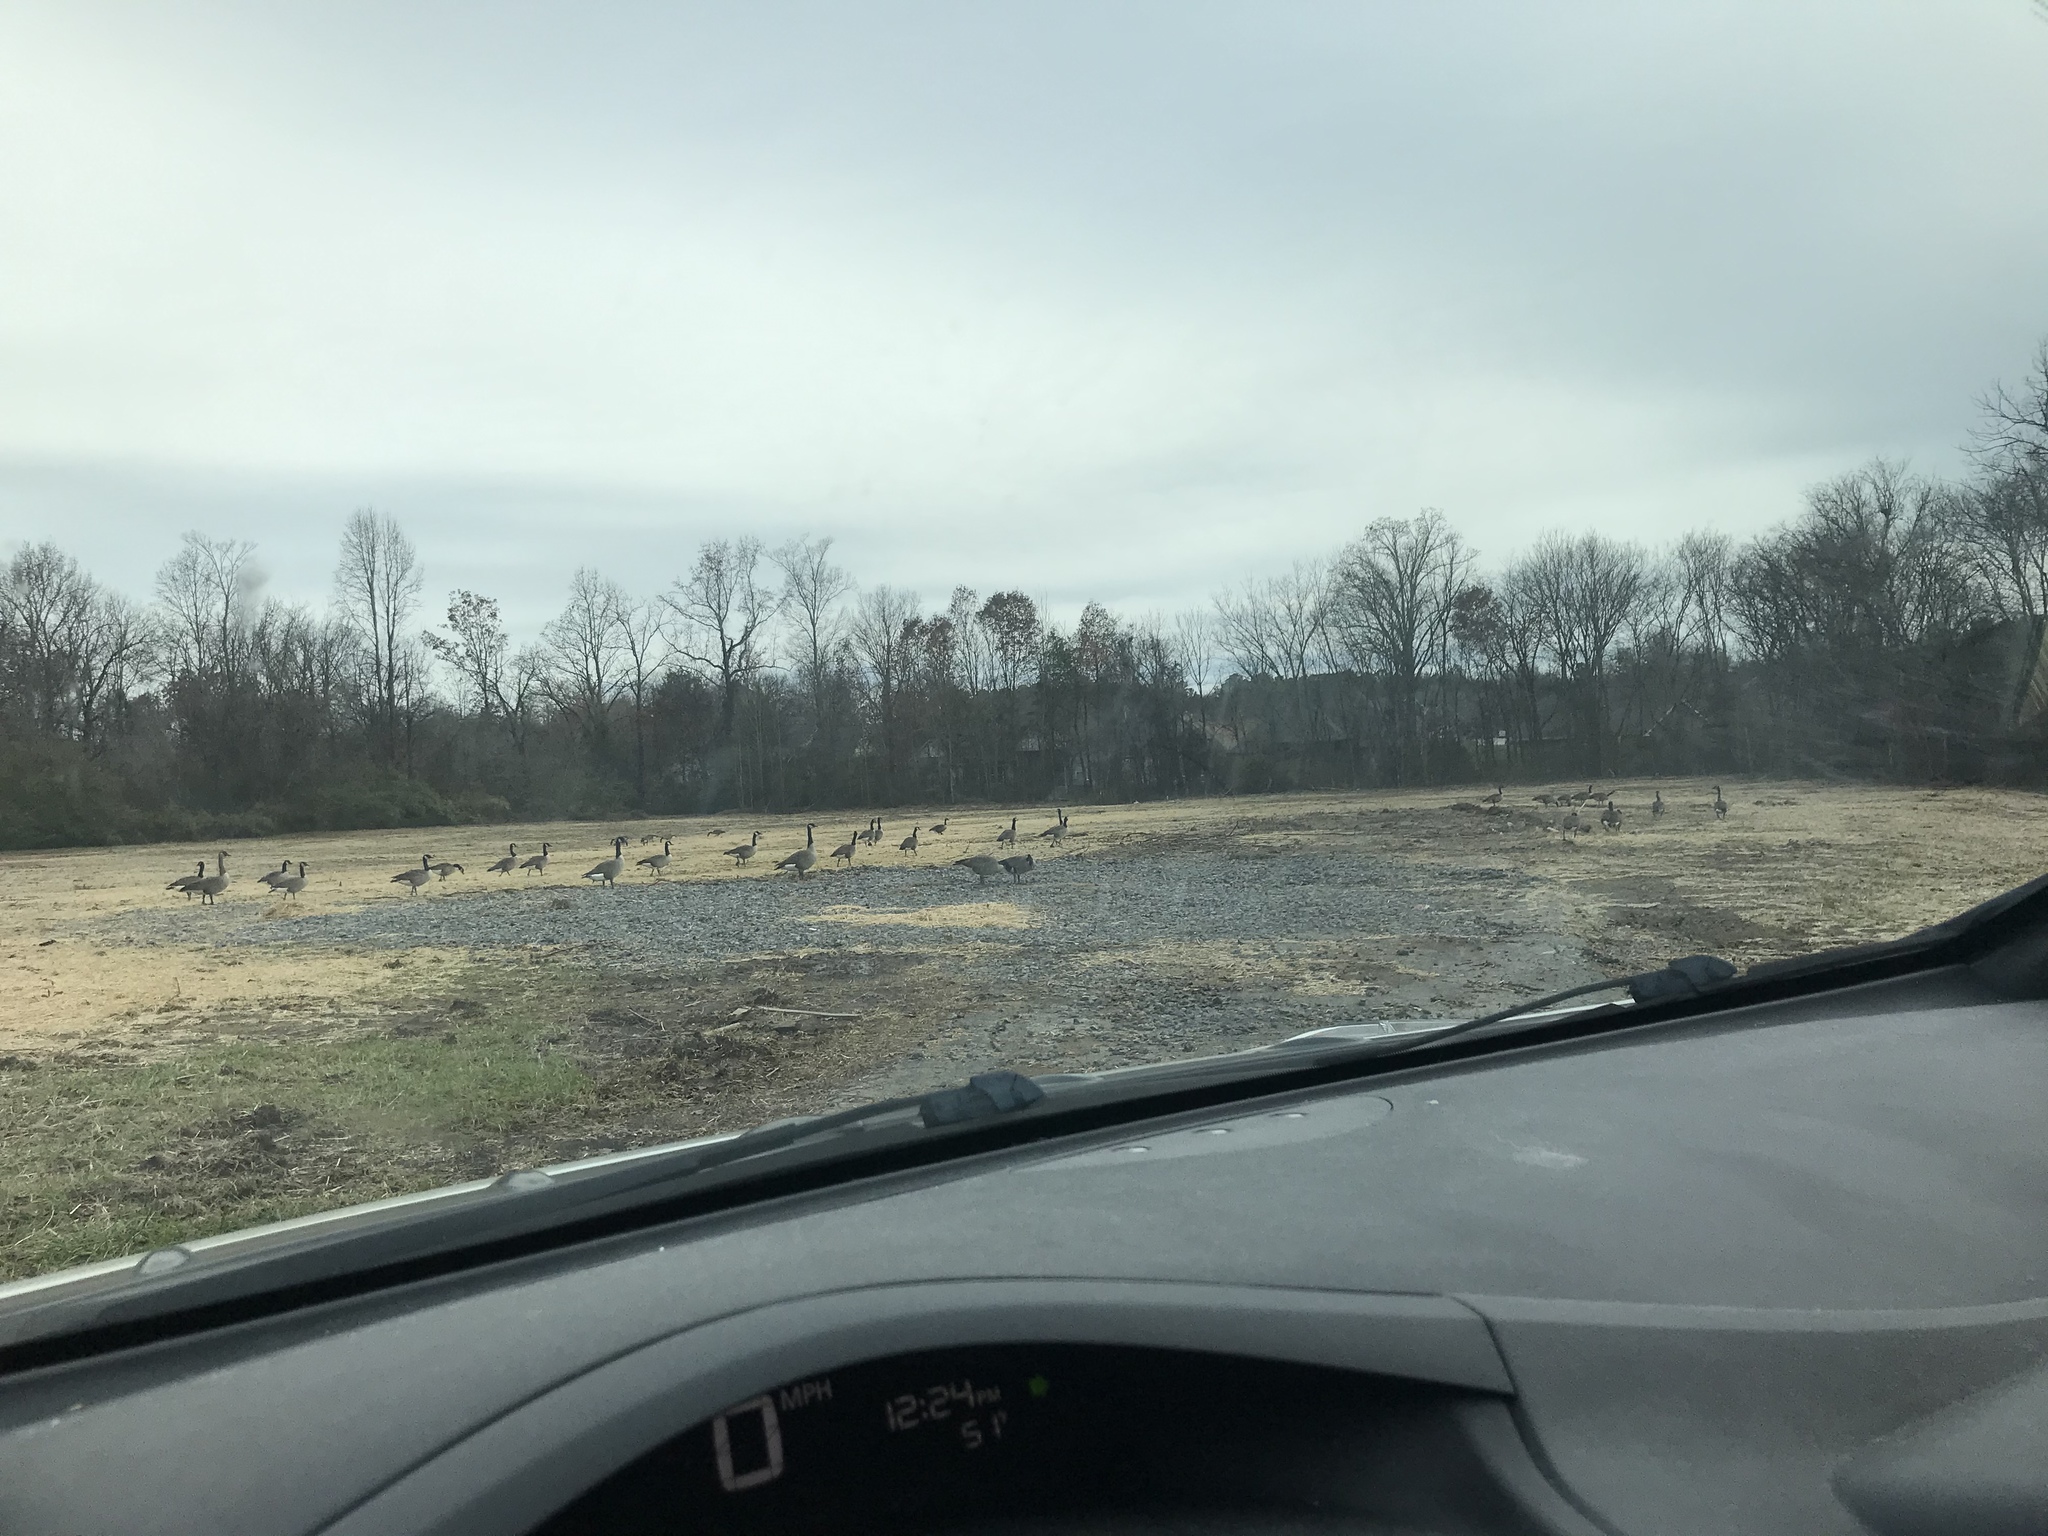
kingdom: Animalia
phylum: Chordata
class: Aves
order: Anseriformes
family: Anatidae
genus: Branta
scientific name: Branta canadensis
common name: Canada goose
